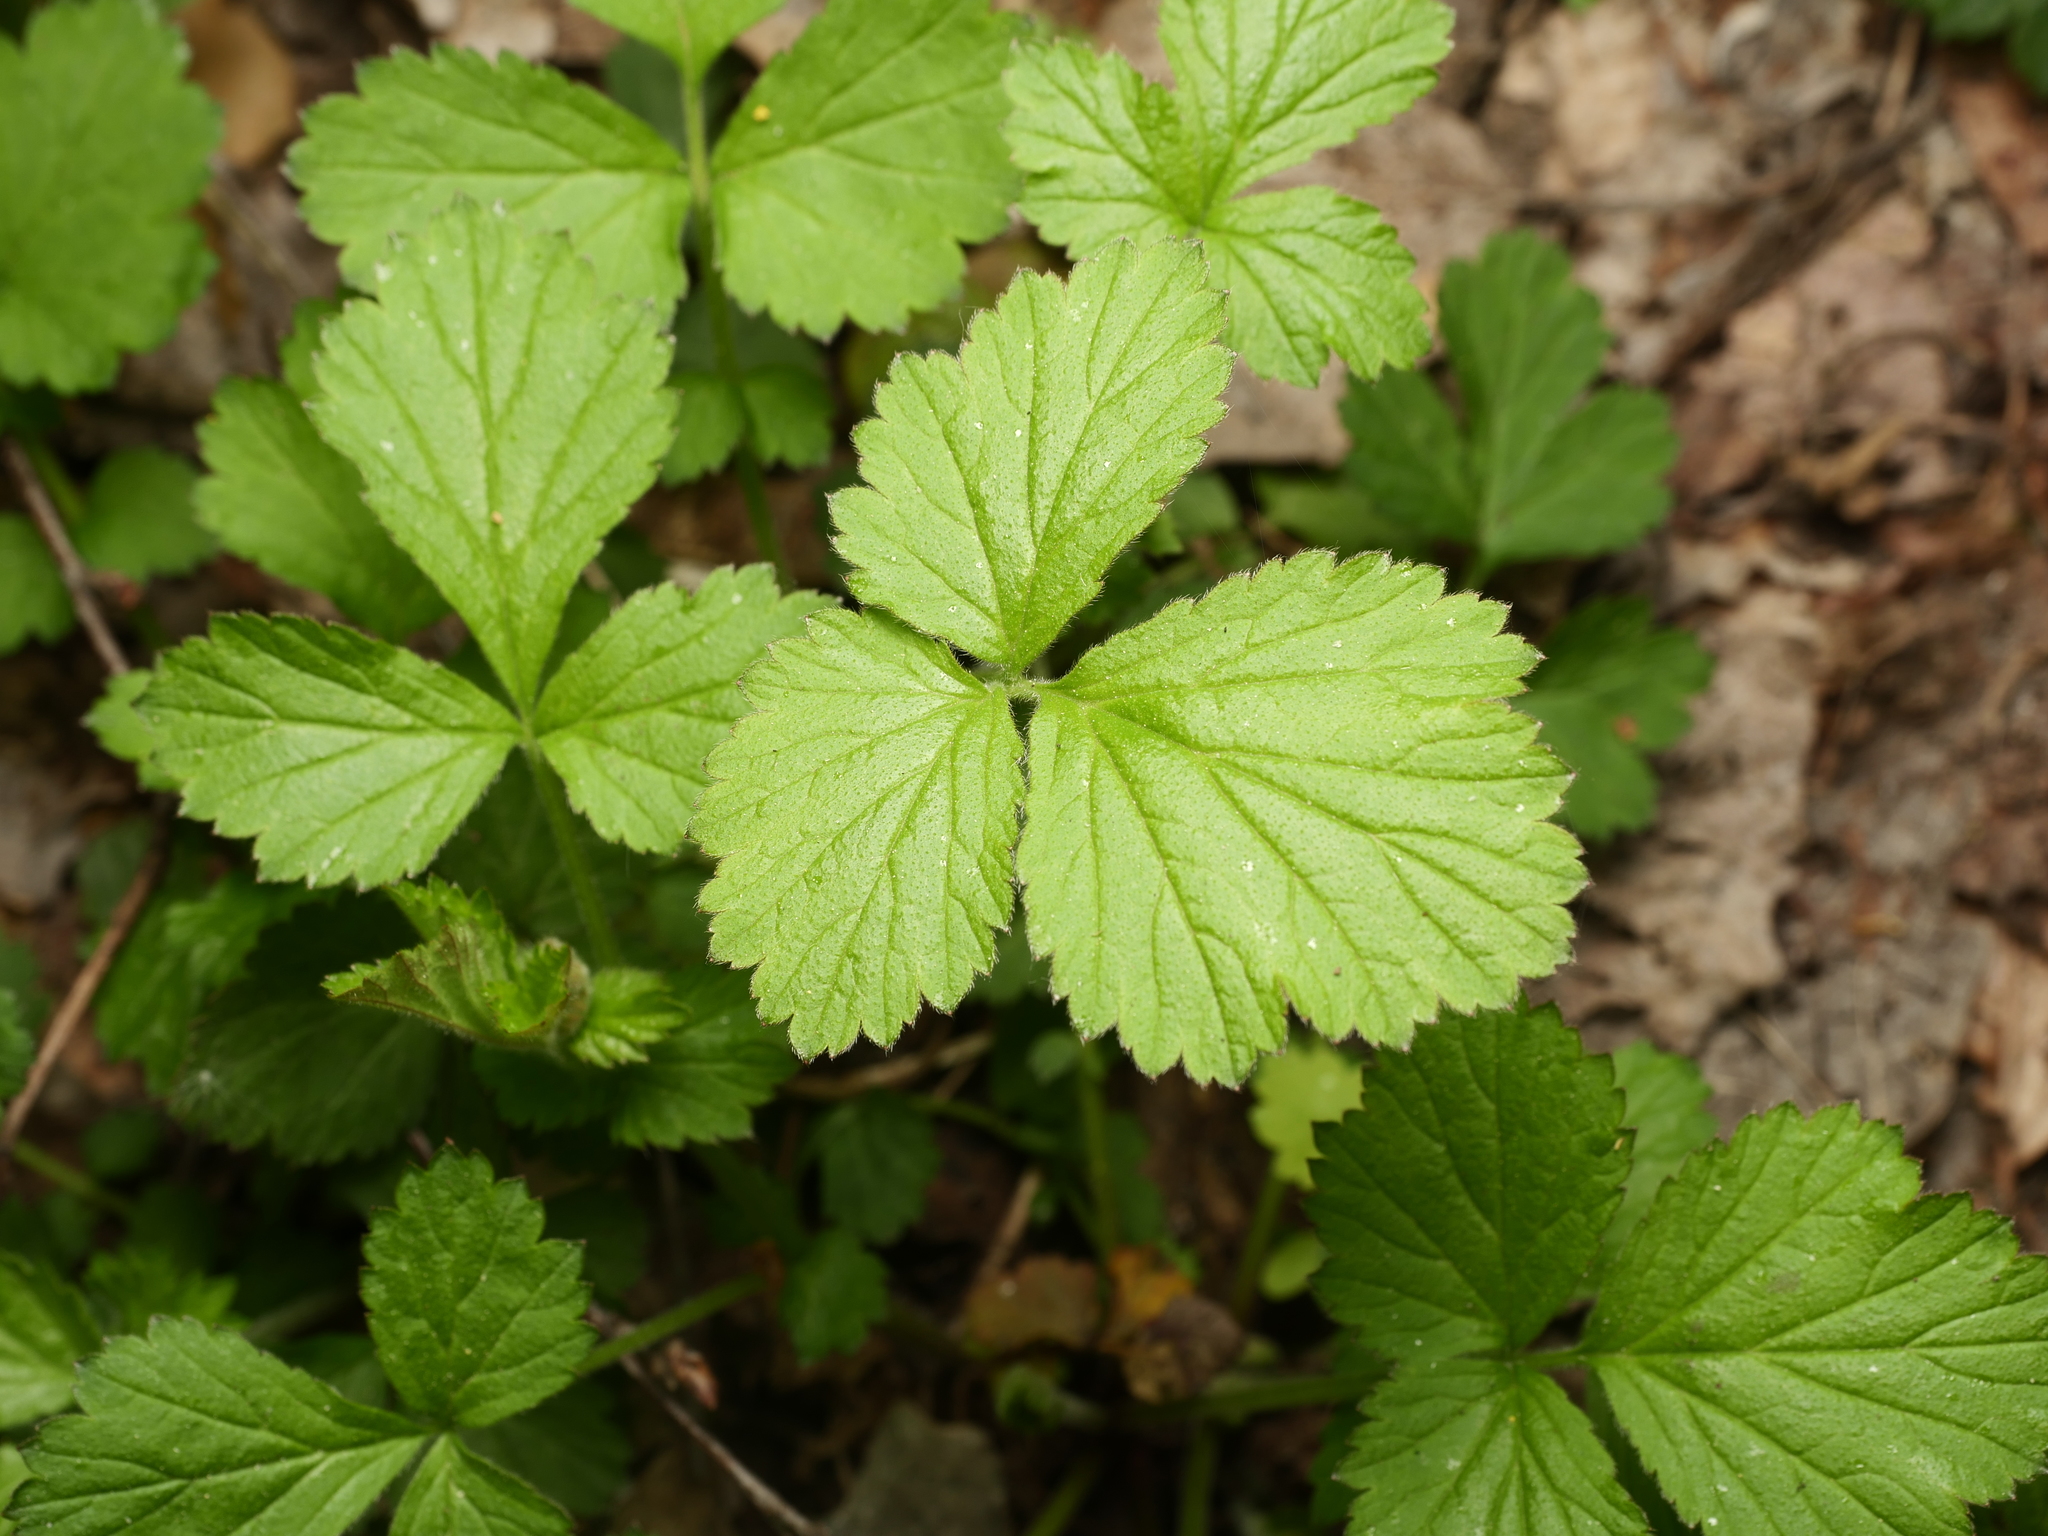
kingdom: Plantae
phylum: Tracheophyta
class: Magnoliopsida
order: Rosales
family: Rosaceae
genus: Geum
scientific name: Geum urbanum
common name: Wood avens
